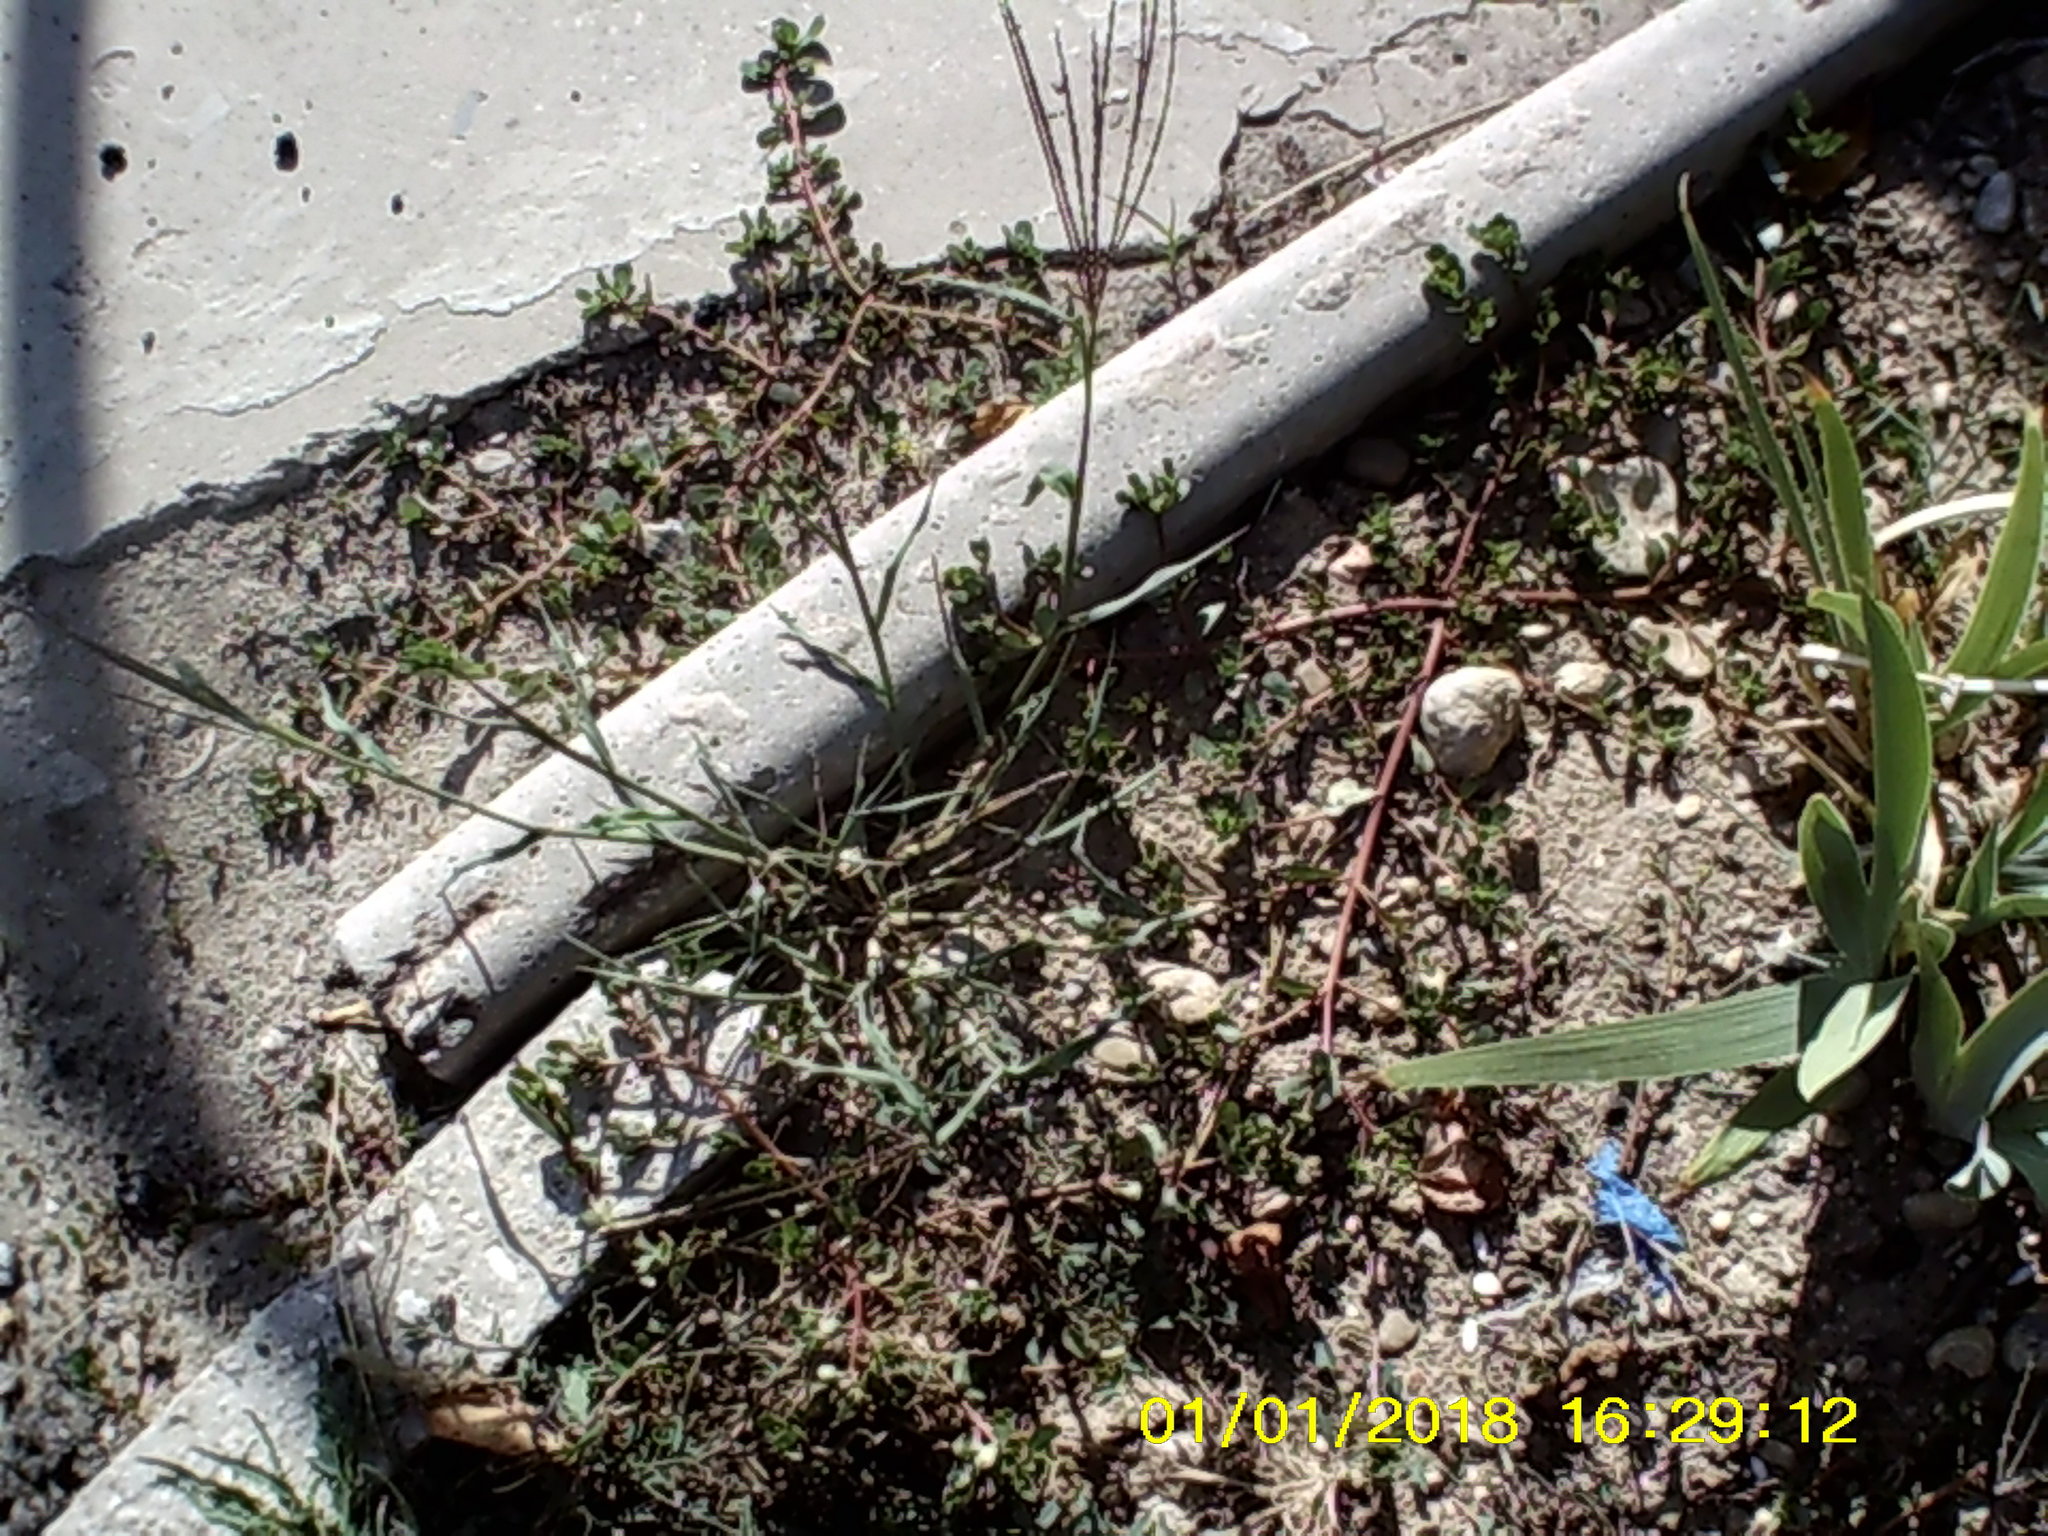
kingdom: Plantae
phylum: Tracheophyta
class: Liliopsida
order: Poales
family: Poaceae
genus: Digitaria
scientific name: Digitaria sanguinalis
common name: Hairy crabgrass
